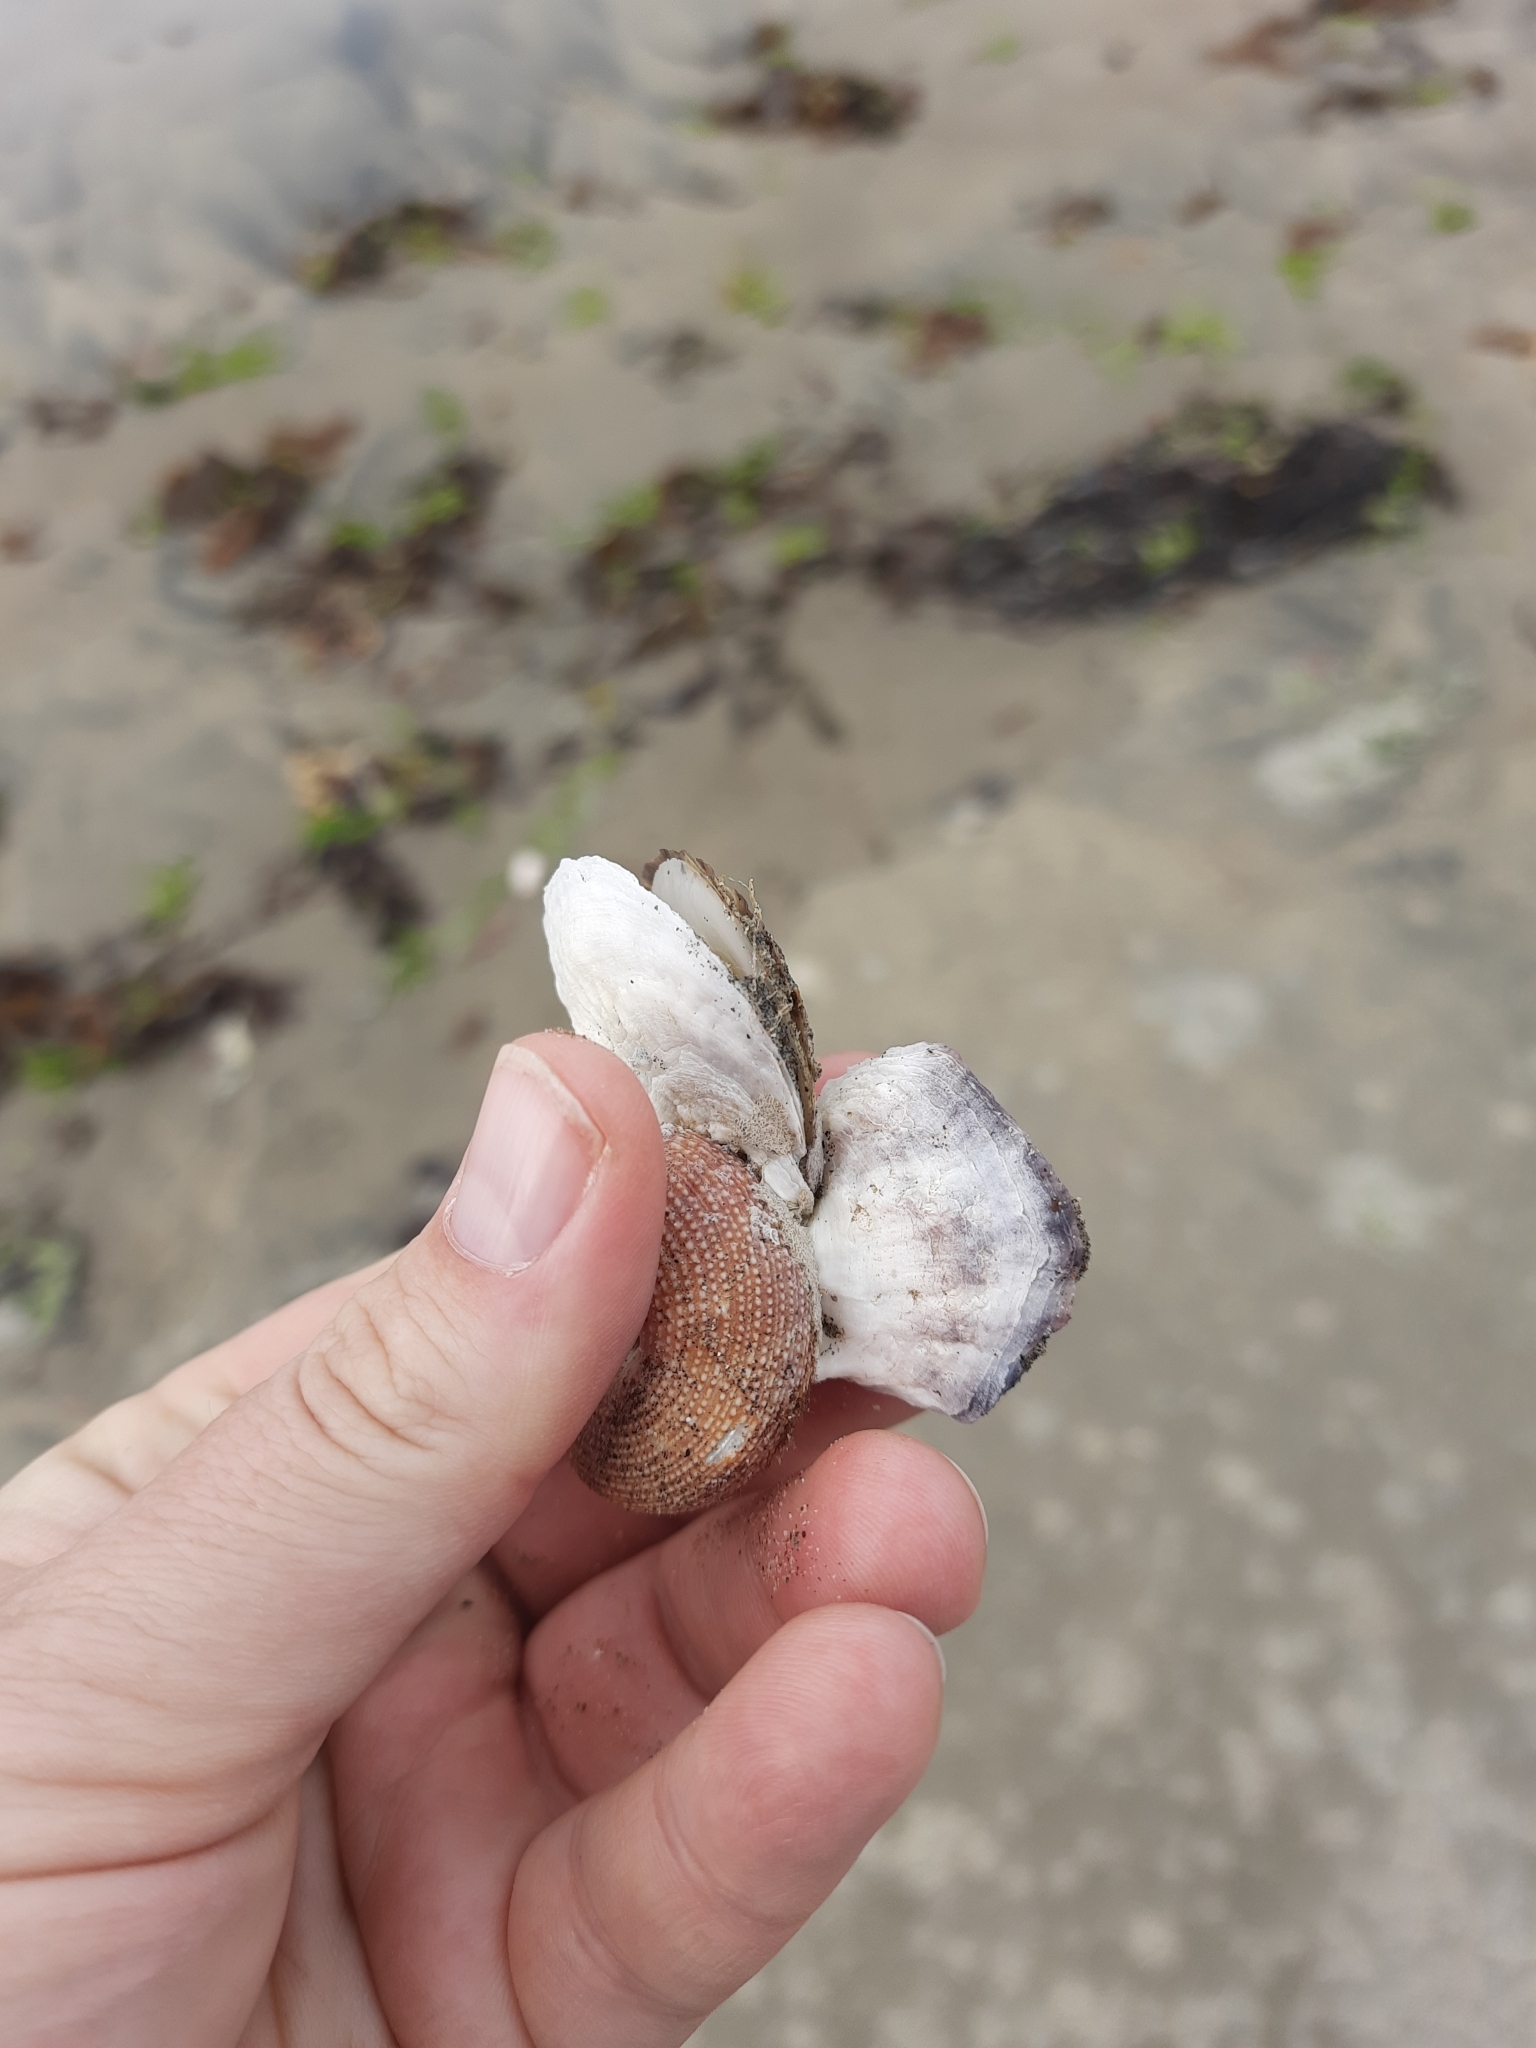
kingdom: Animalia
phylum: Mollusca
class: Bivalvia
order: Ostreida
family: Ostreidae
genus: Ostrea
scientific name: Ostrea chilensis
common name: Chilean oyster
